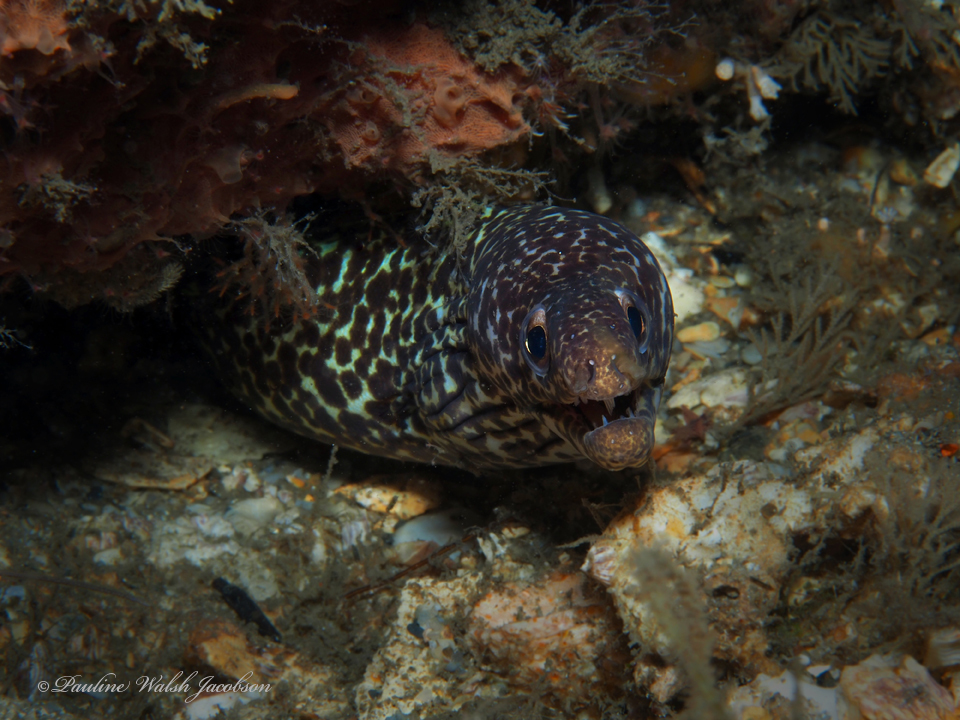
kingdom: Animalia
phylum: Chordata
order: Anguilliformes
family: Muraenidae
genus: Gymnothorax
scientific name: Gymnothorax moringa
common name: Spotted moray
